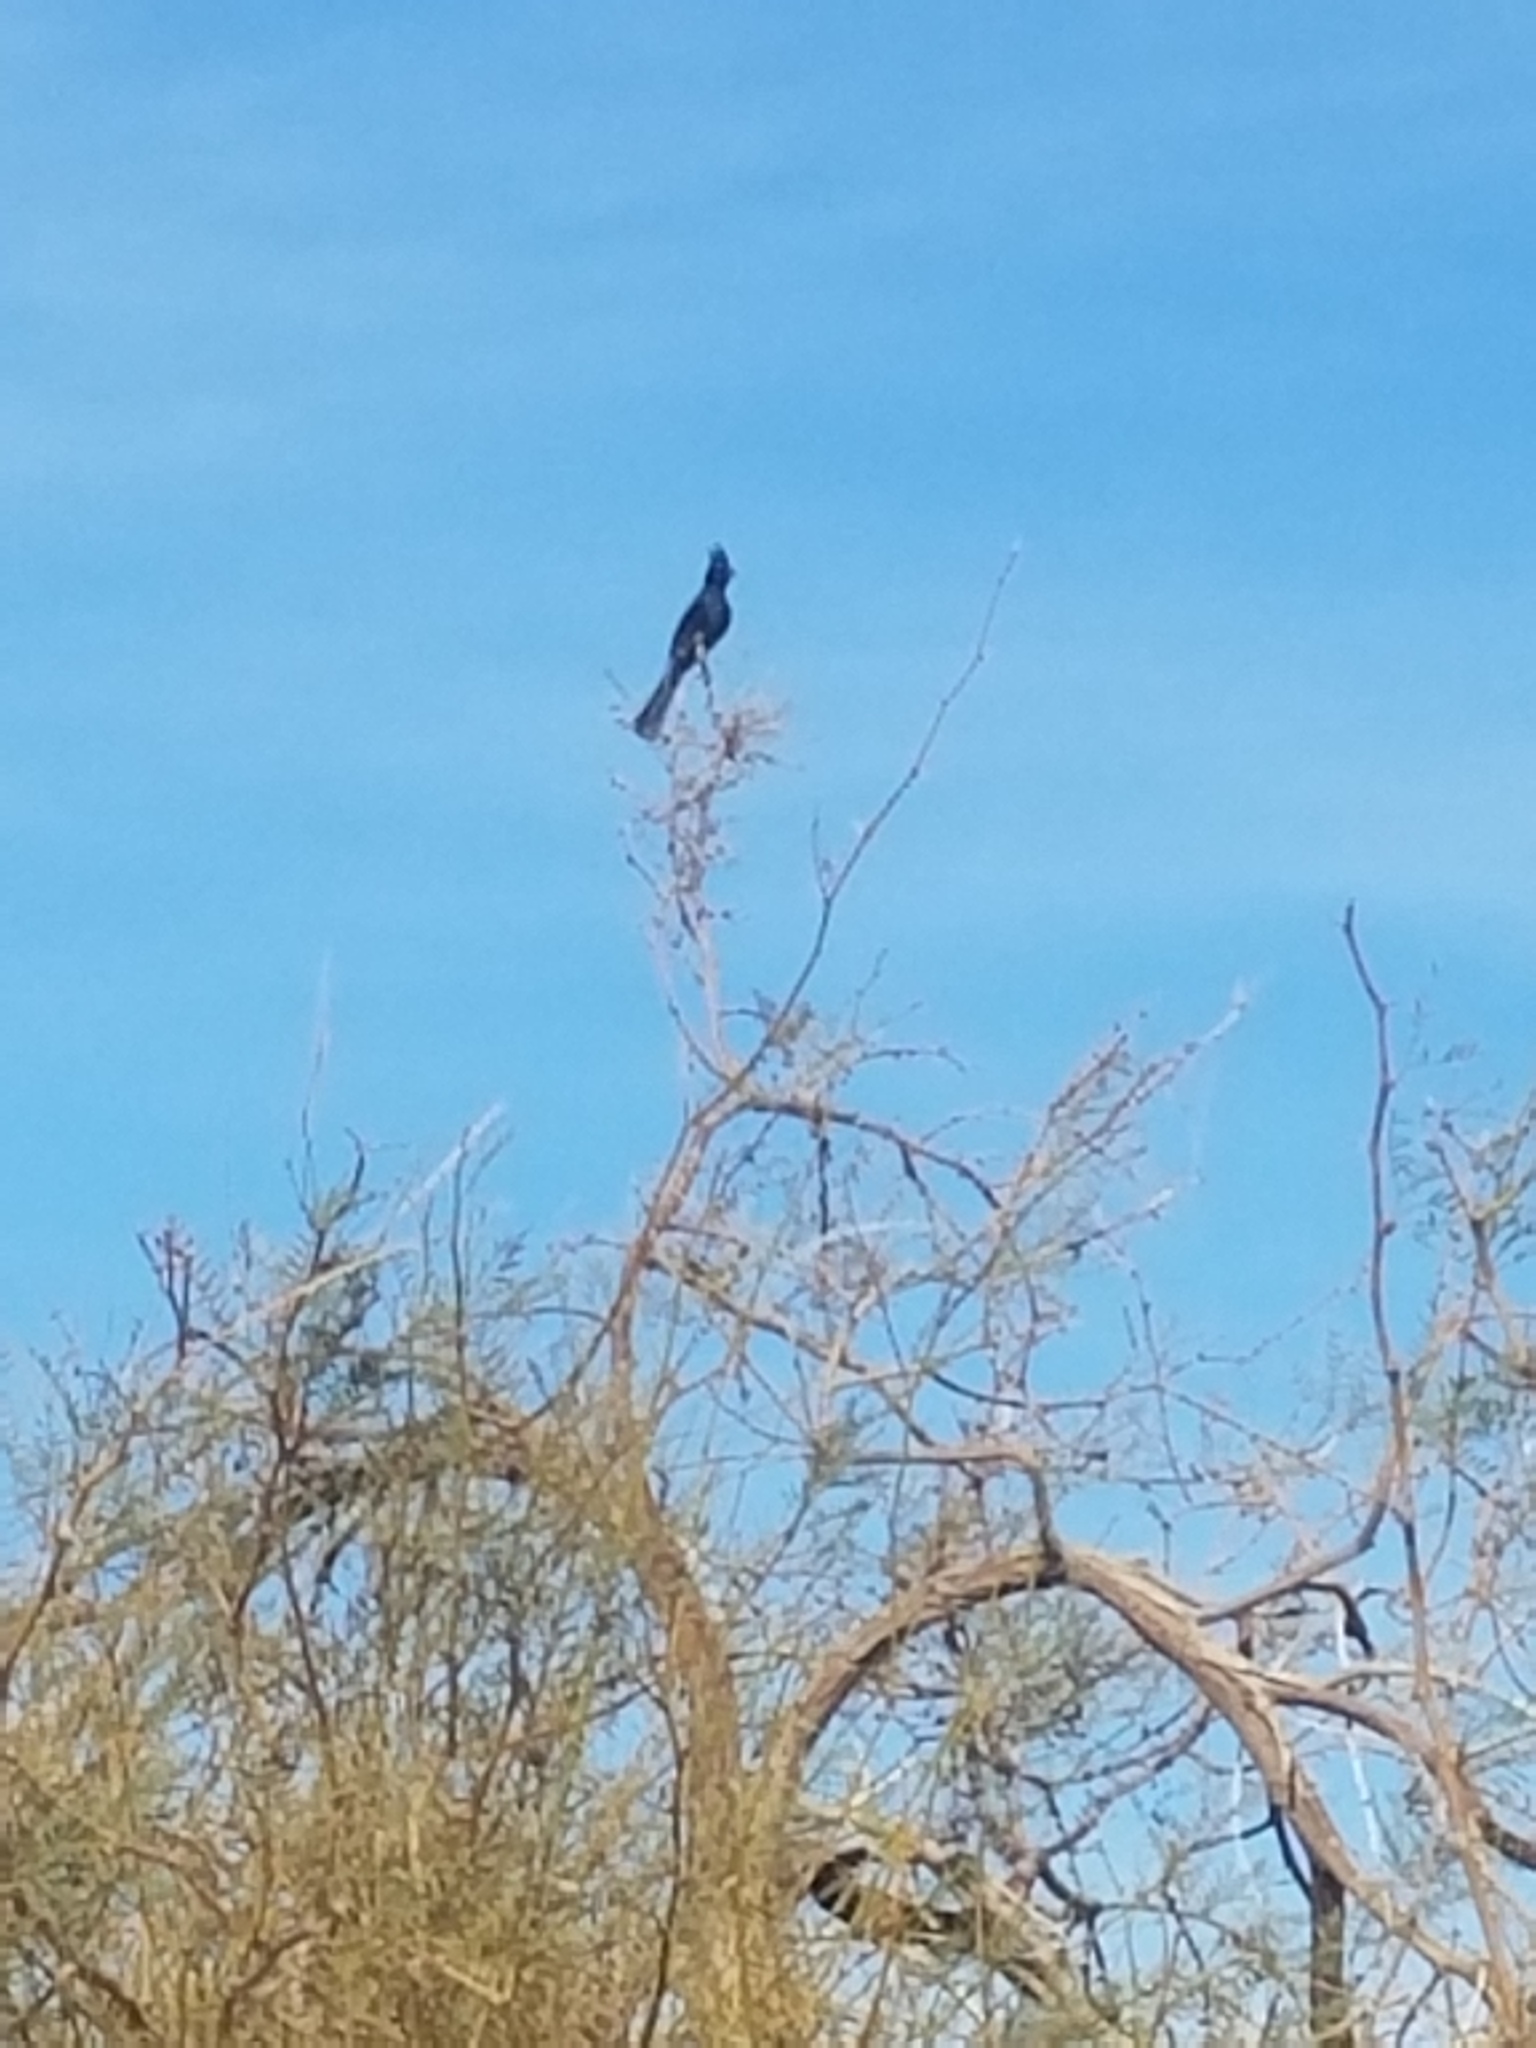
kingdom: Animalia
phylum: Chordata
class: Aves
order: Passeriformes
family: Ptilogonatidae
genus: Phainopepla
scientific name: Phainopepla nitens
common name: Phainopepla
